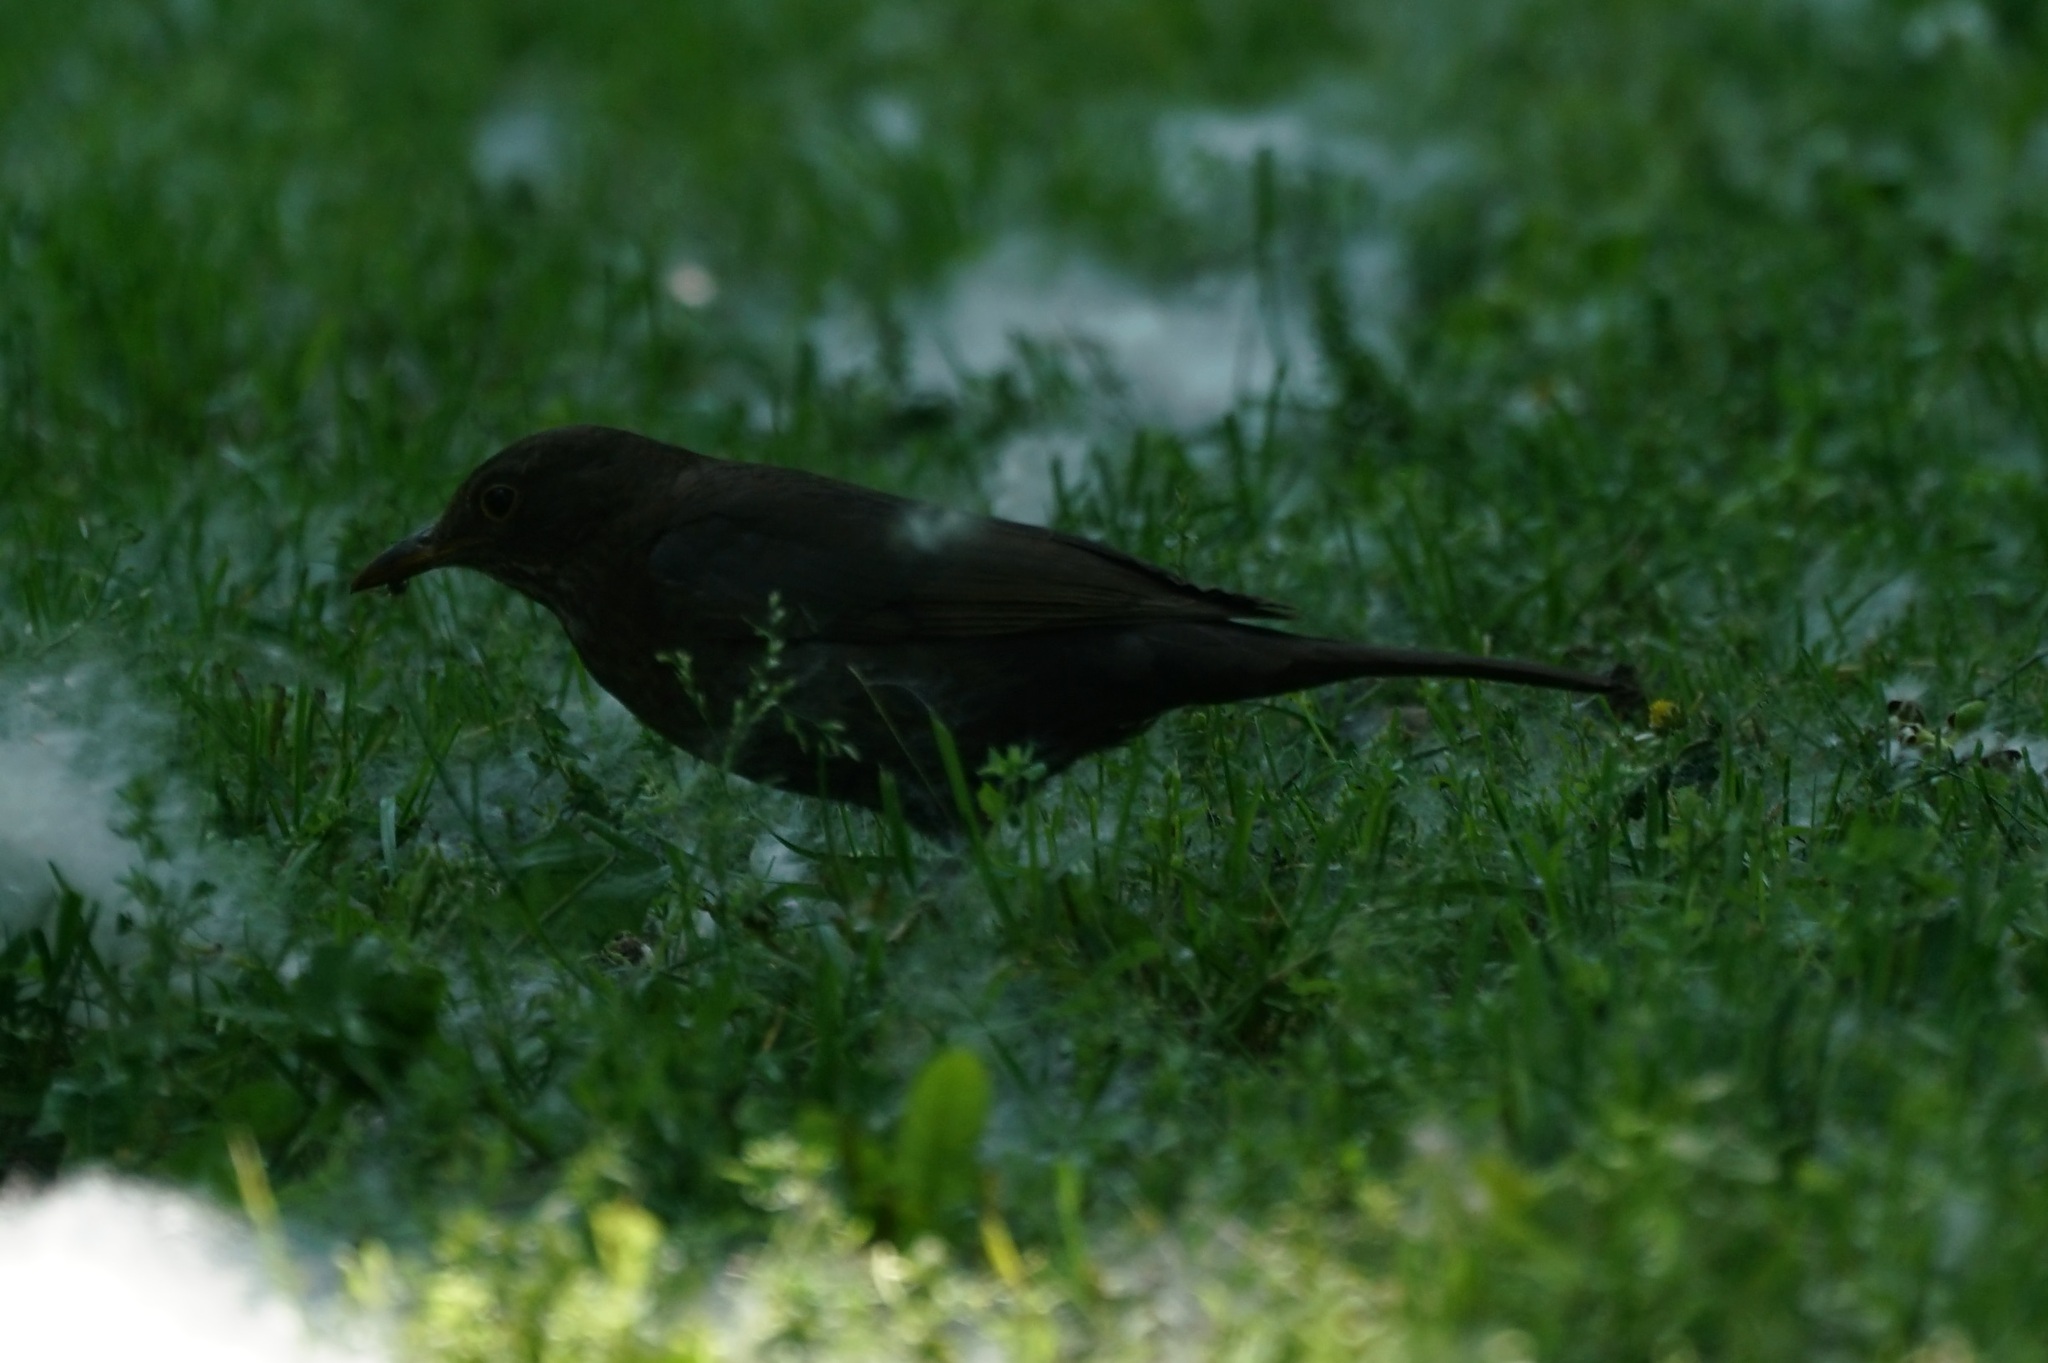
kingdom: Animalia
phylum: Chordata
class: Aves
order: Passeriformes
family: Turdidae
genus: Turdus
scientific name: Turdus merula
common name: Common blackbird
